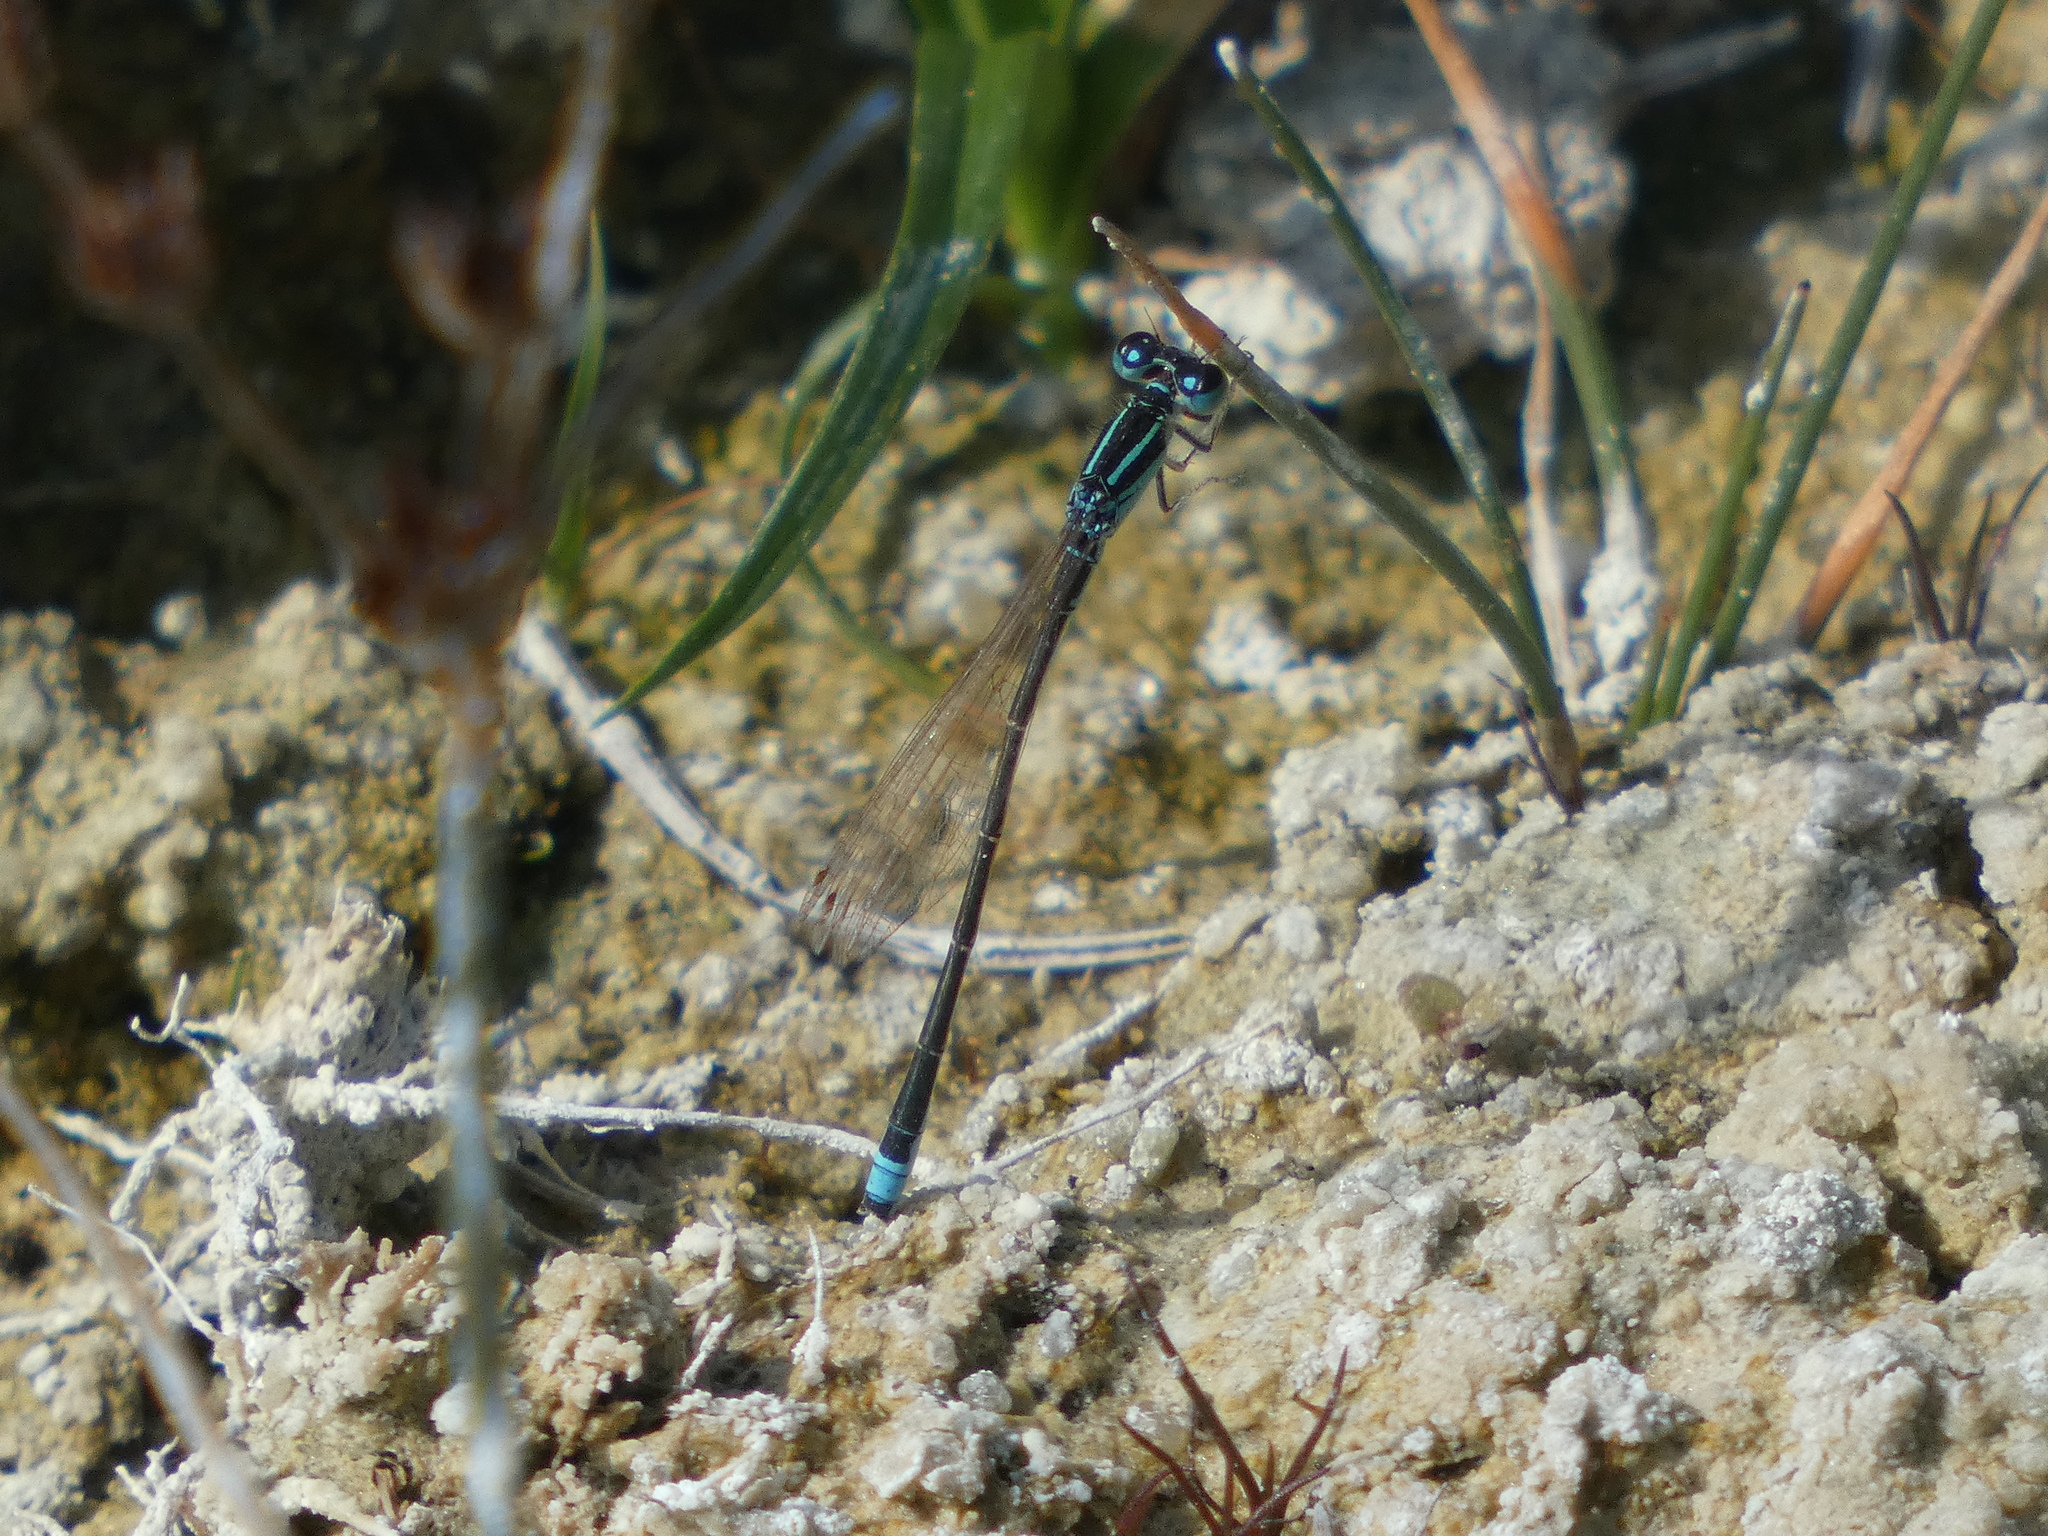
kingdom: Animalia
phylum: Arthropoda
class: Insecta
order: Odonata
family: Coenagrionidae
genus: Ischnura
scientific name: Ischnura pumilio
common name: Scarce blue-tailed damselfly
